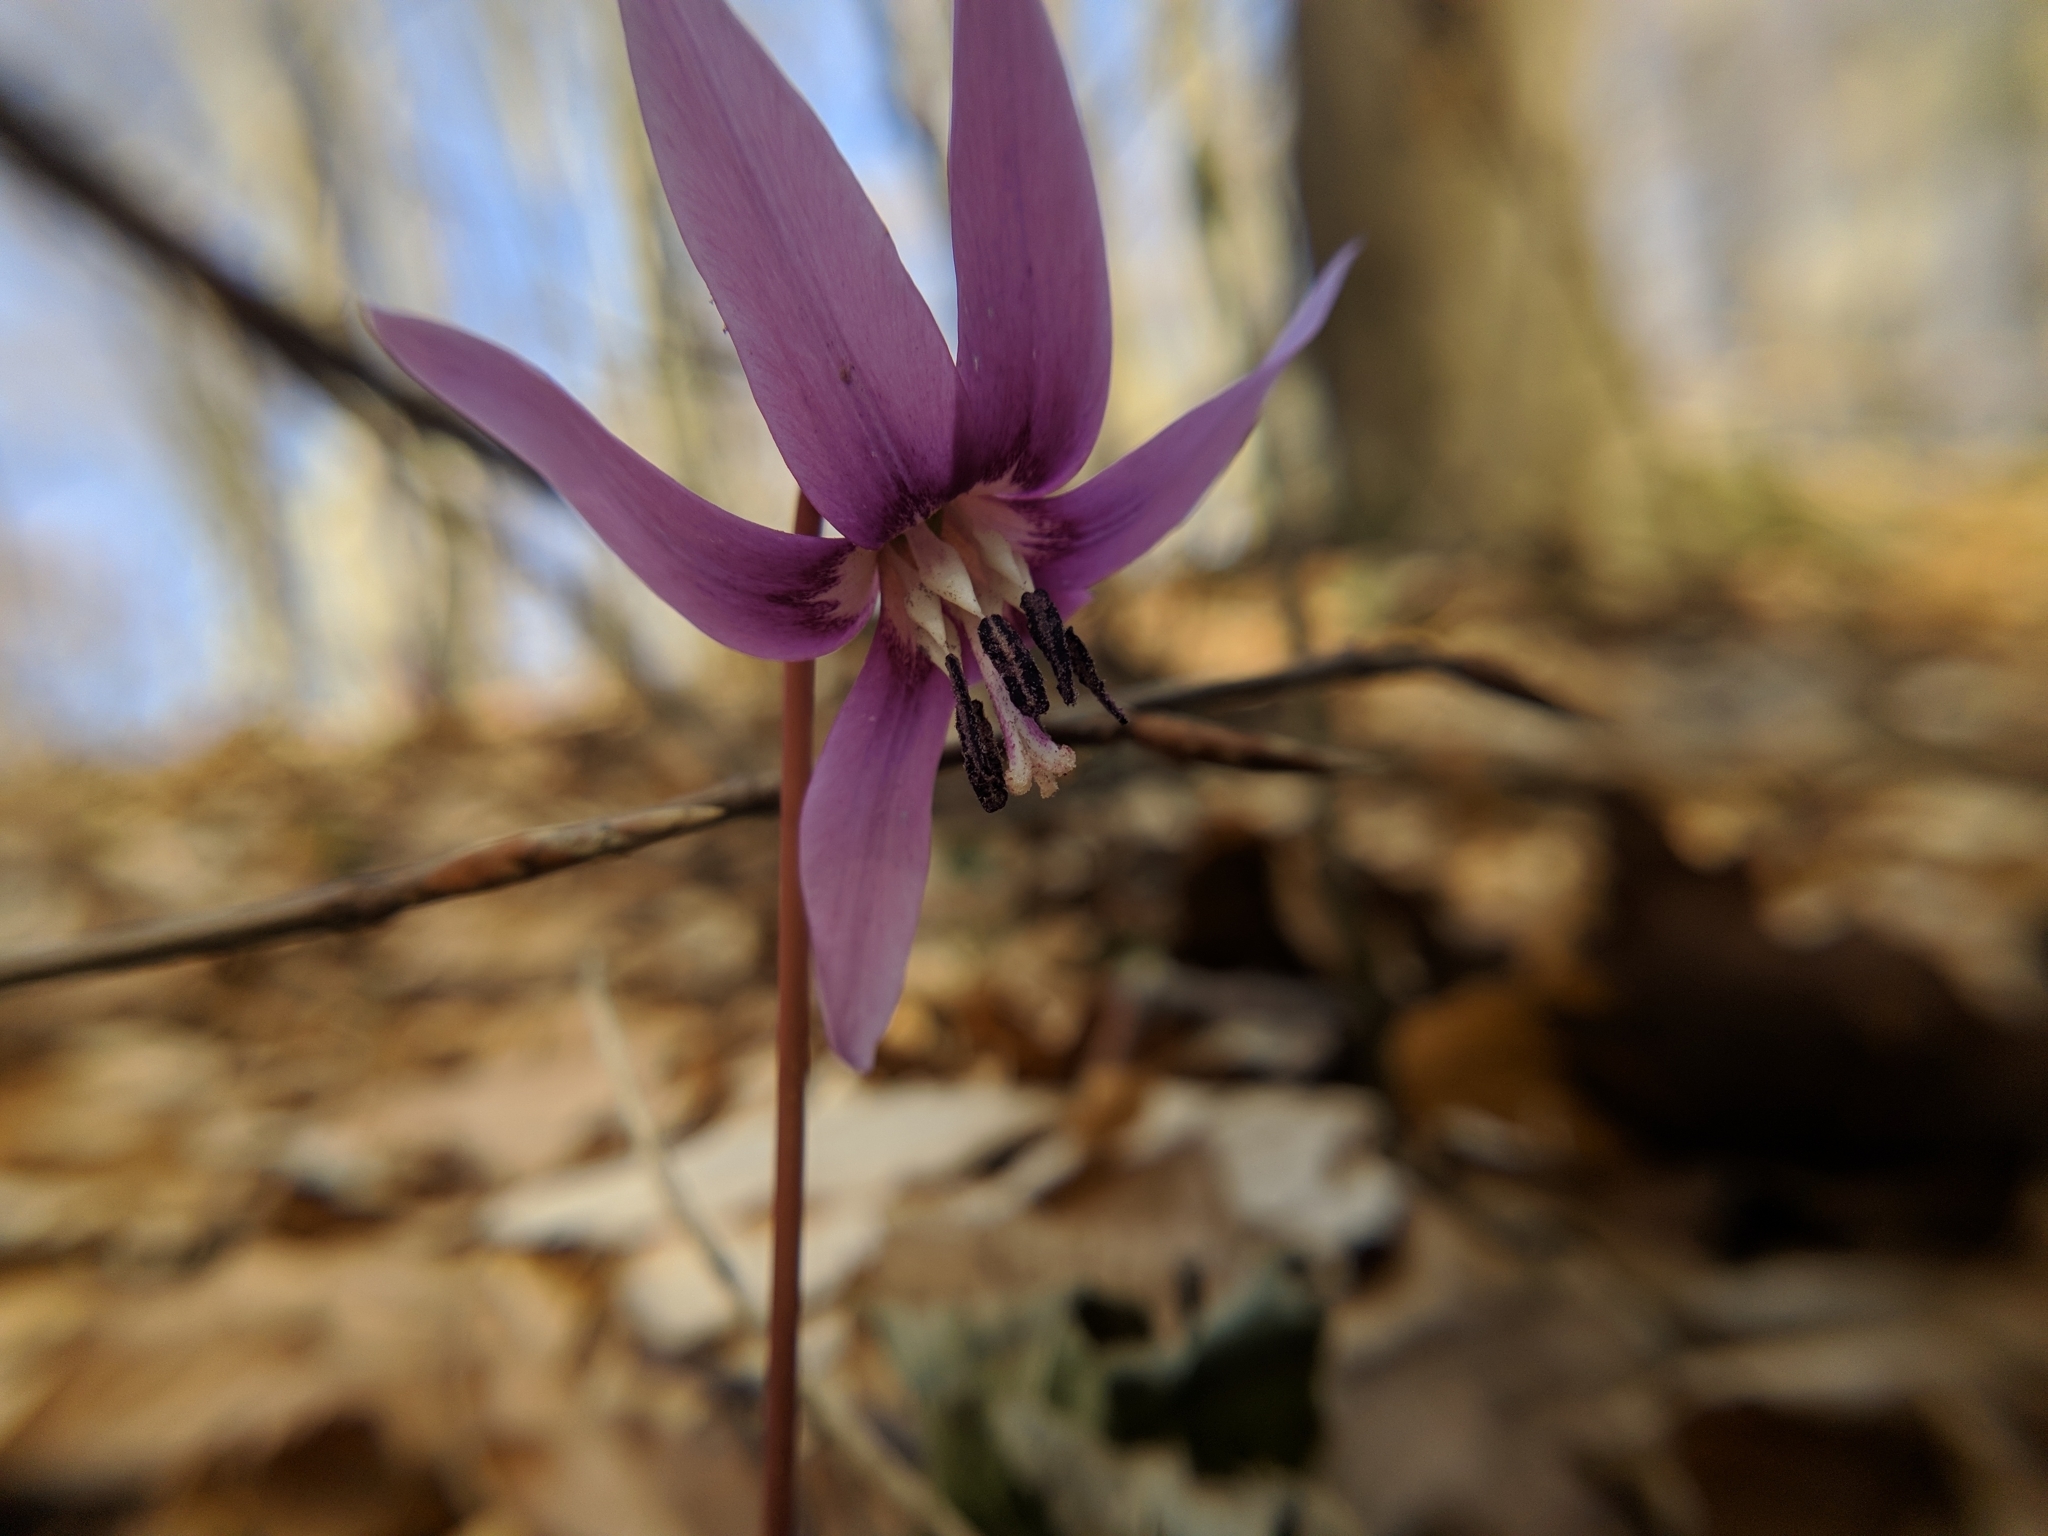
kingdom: Plantae
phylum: Tracheophyta
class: Liliopsida
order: Liliales
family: Liliaceae
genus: Erythronium
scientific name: Erythronium dens-canis
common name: Dog's-tooth-violet
